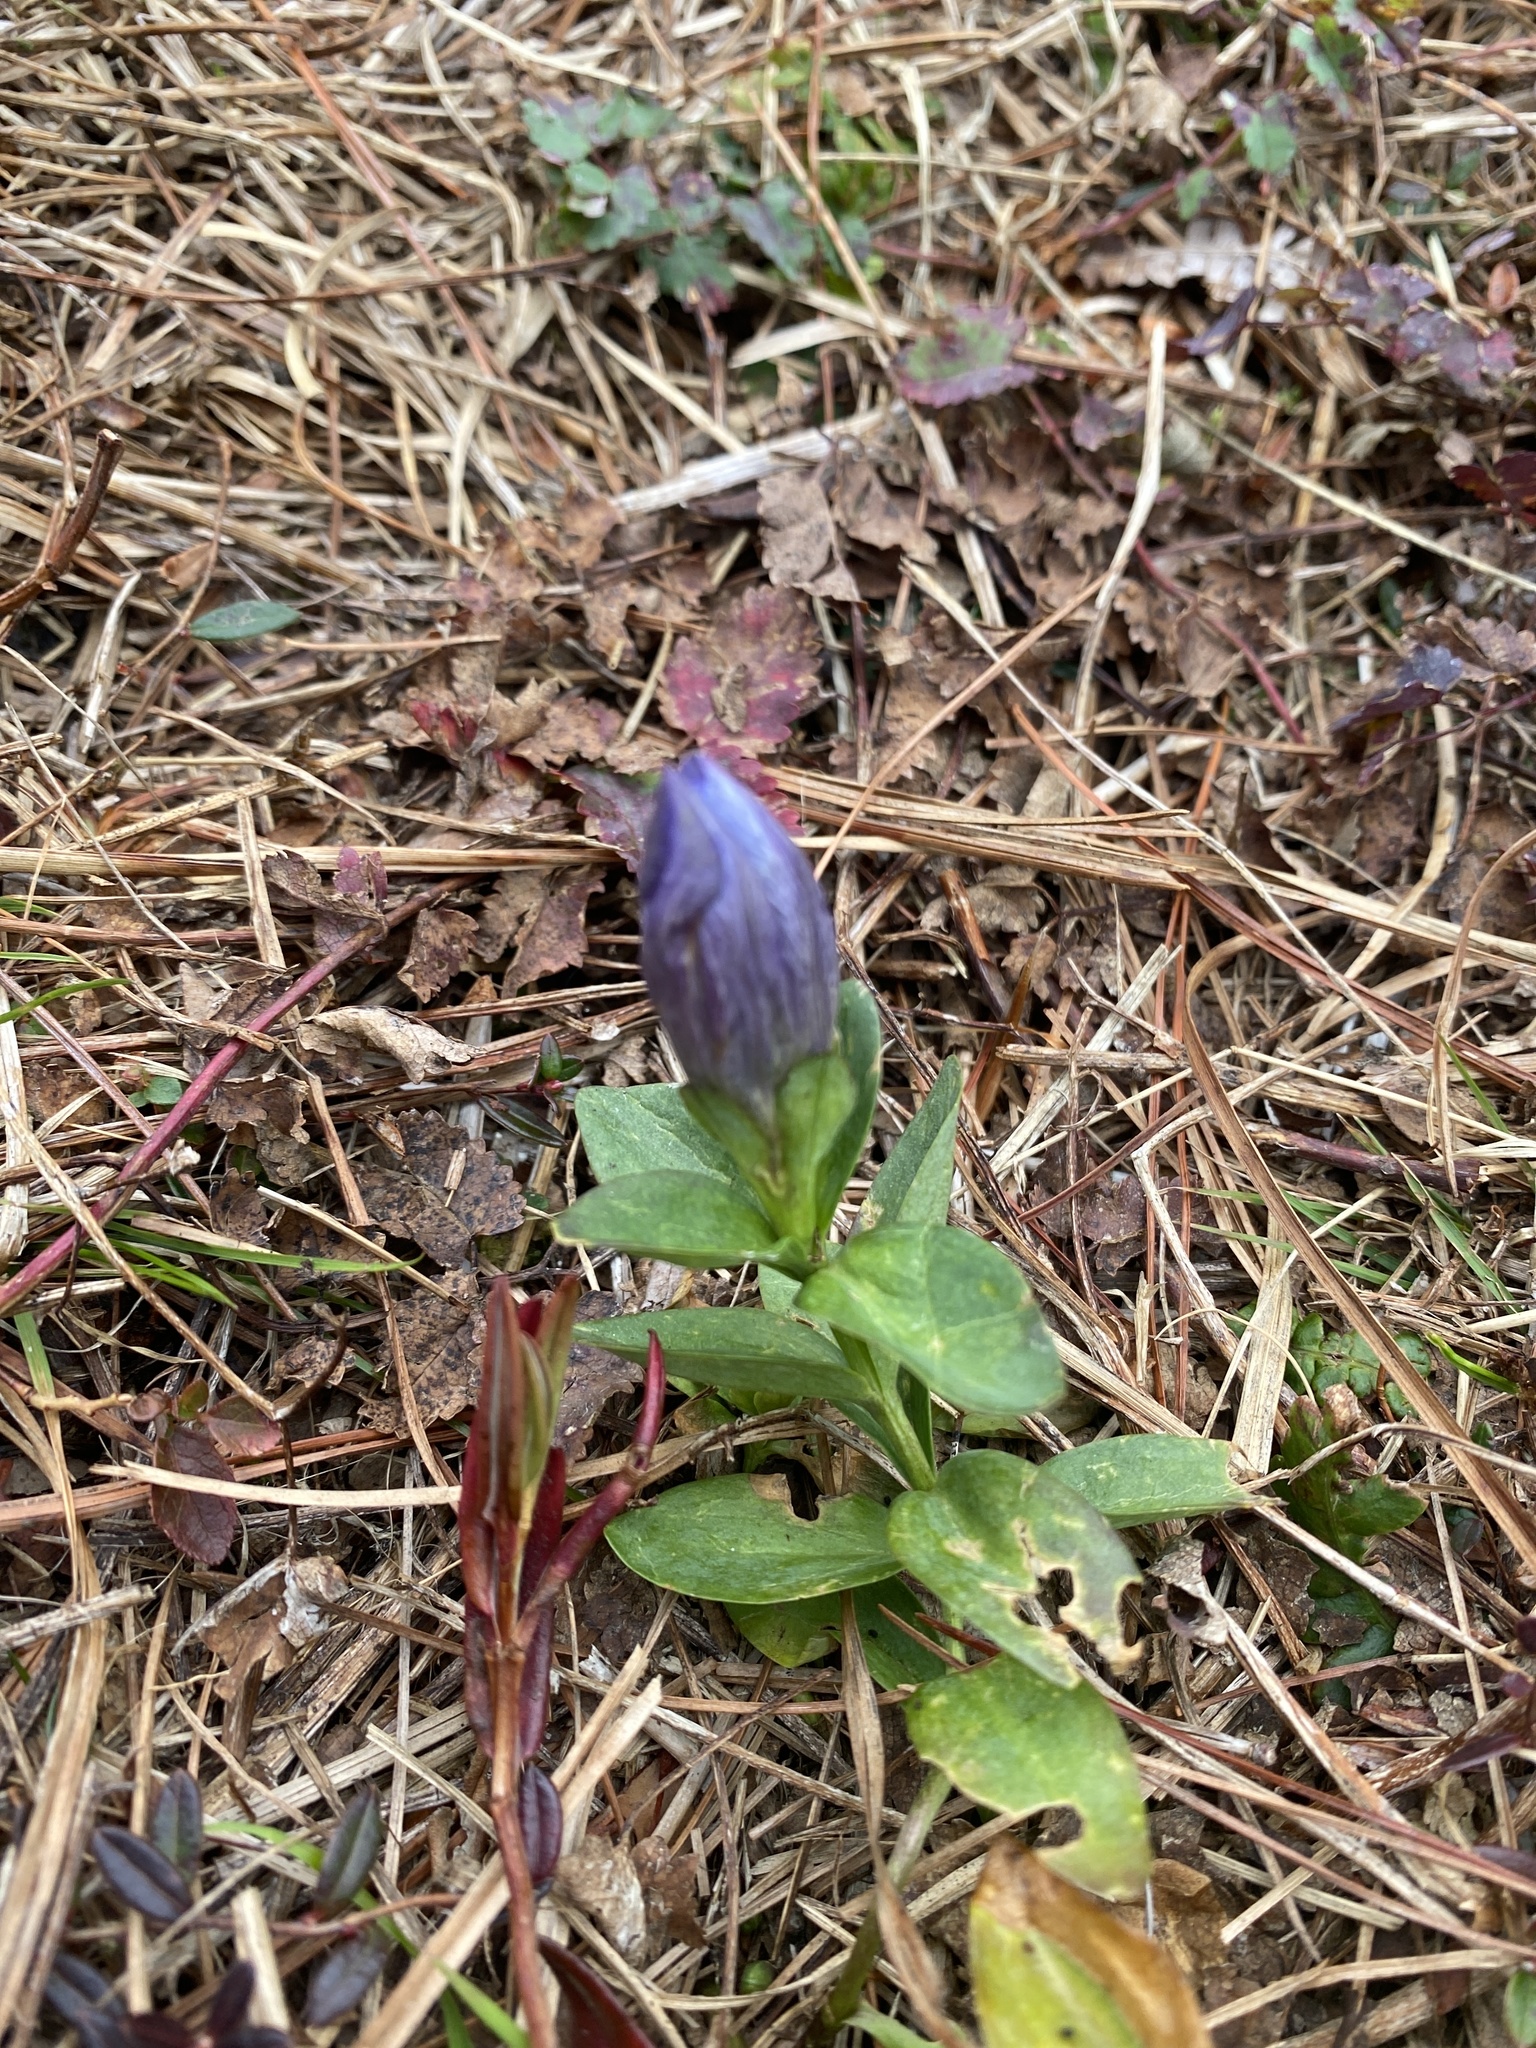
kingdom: Plantae
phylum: Tracheophyta
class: Magnoliopsida
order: Gentianales
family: Gentianaceae
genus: Gentiana
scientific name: Gentiana sceptrum
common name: Pacific gentian
